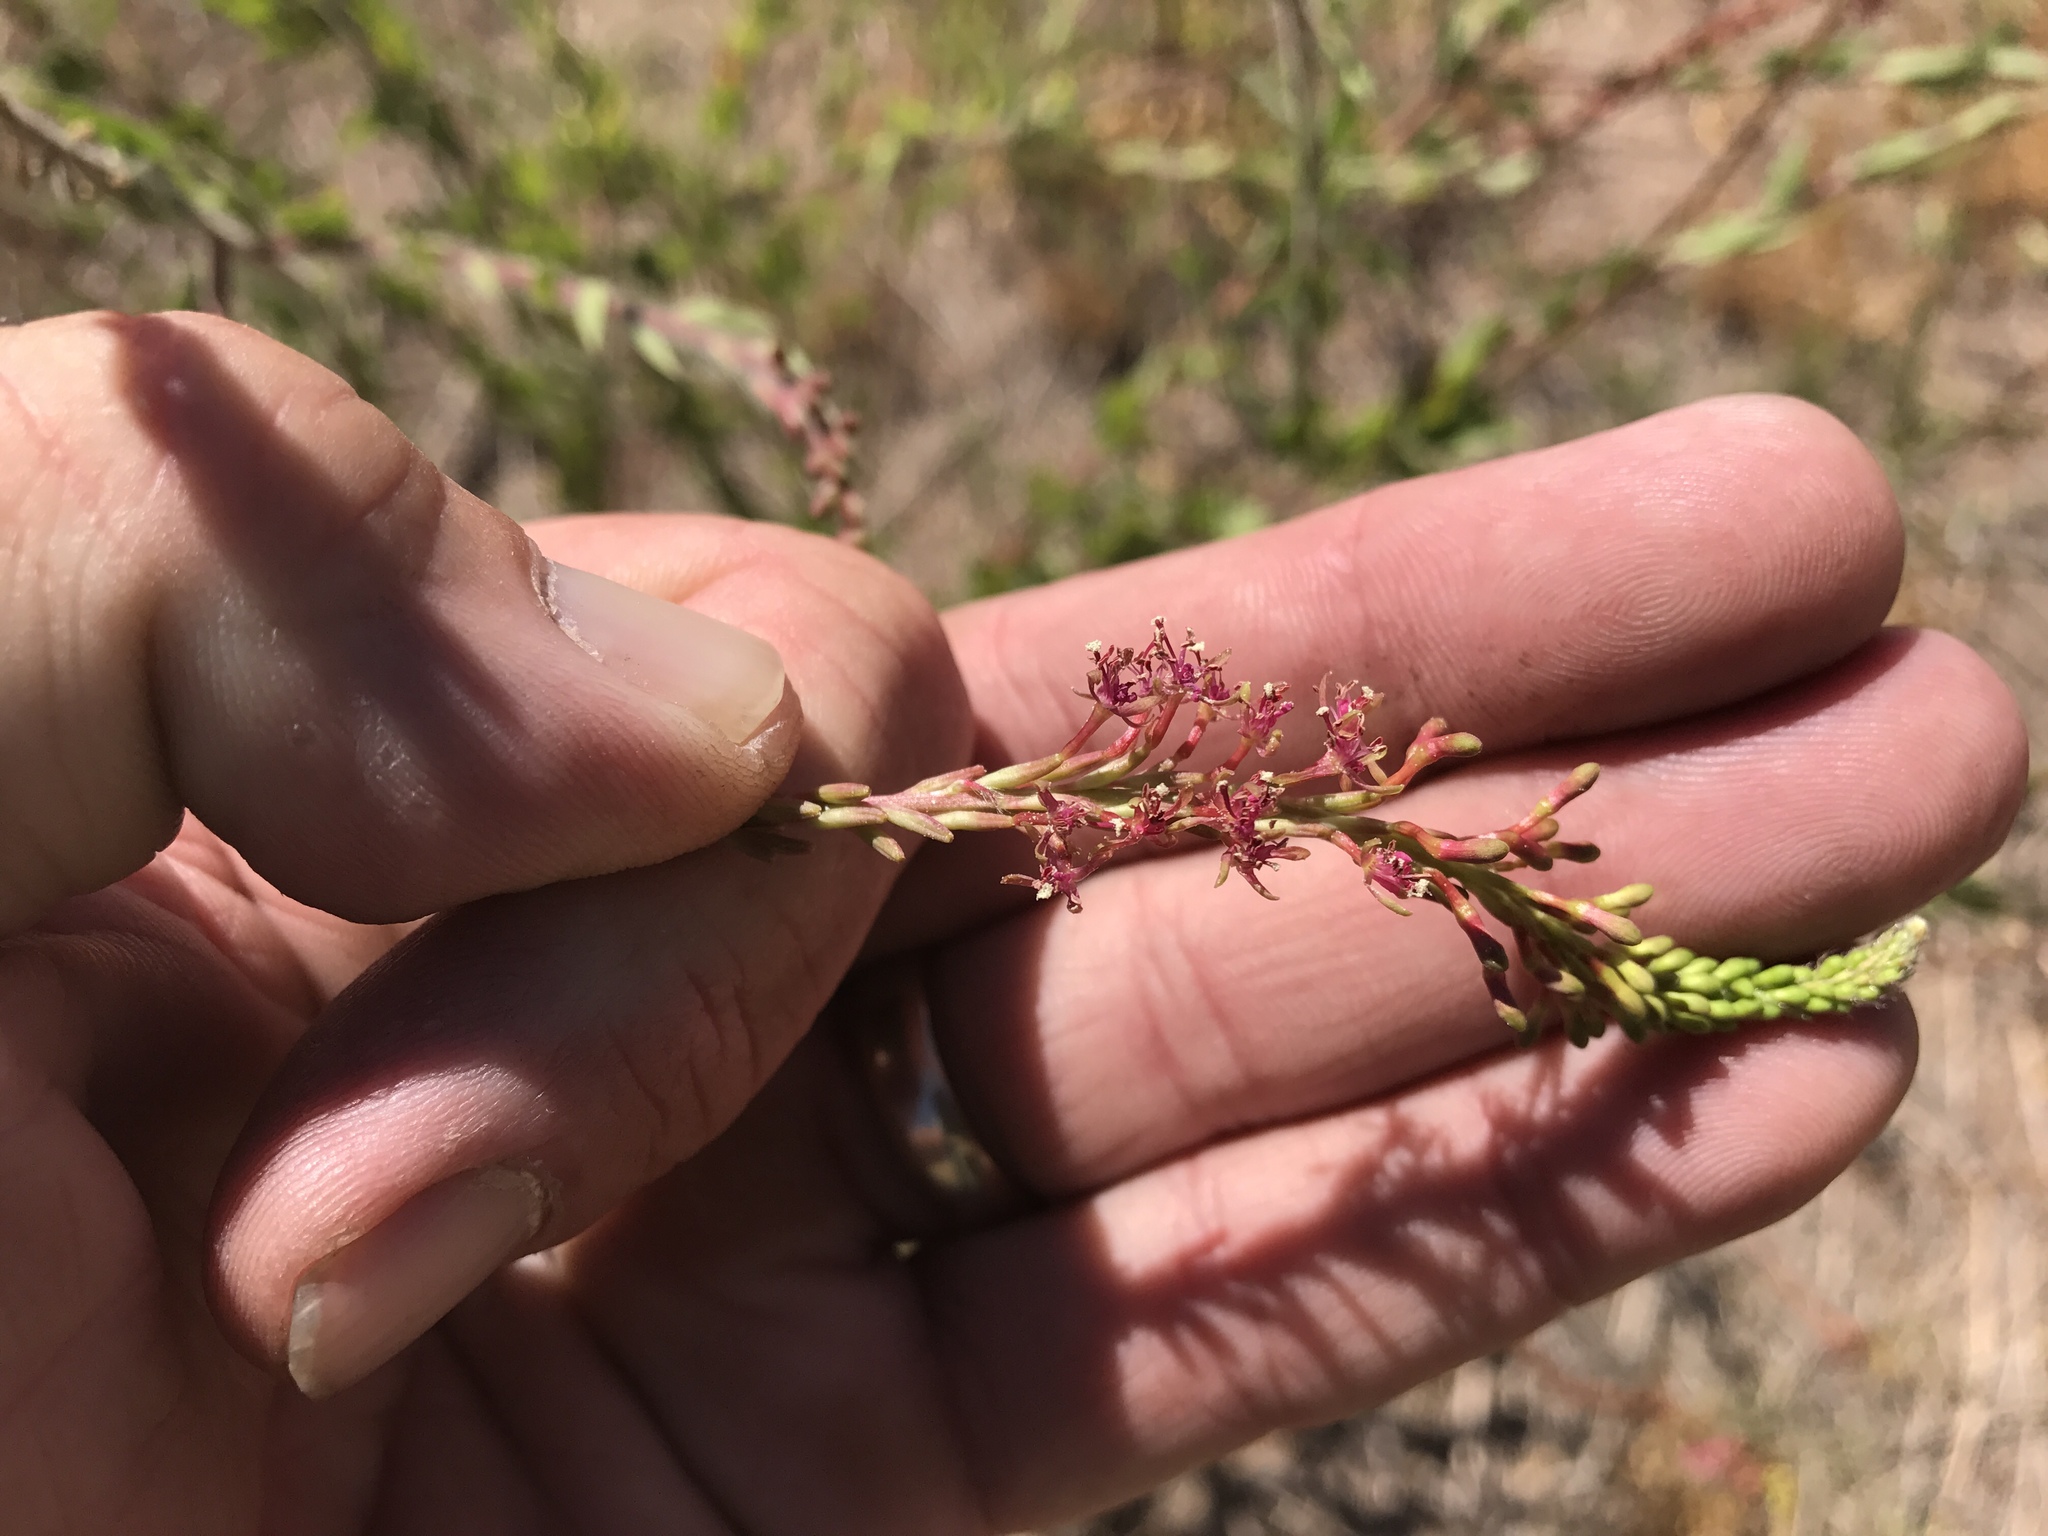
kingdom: Plantae
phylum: Tracheophyta
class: Magnoliopsida
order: Myrtales
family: Onagraceae
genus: Oenothera
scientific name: Oenothera curtiflora
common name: Velvetweed
